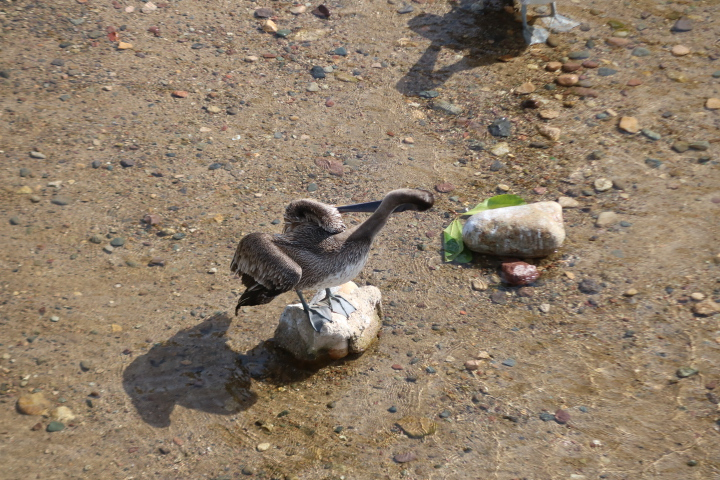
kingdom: Animalia
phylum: Chordata
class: Aves
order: Pelecaniformes
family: Pelecanidae
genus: Pelecanus
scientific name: Pelecanus occidentalis
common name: Brown pelican
